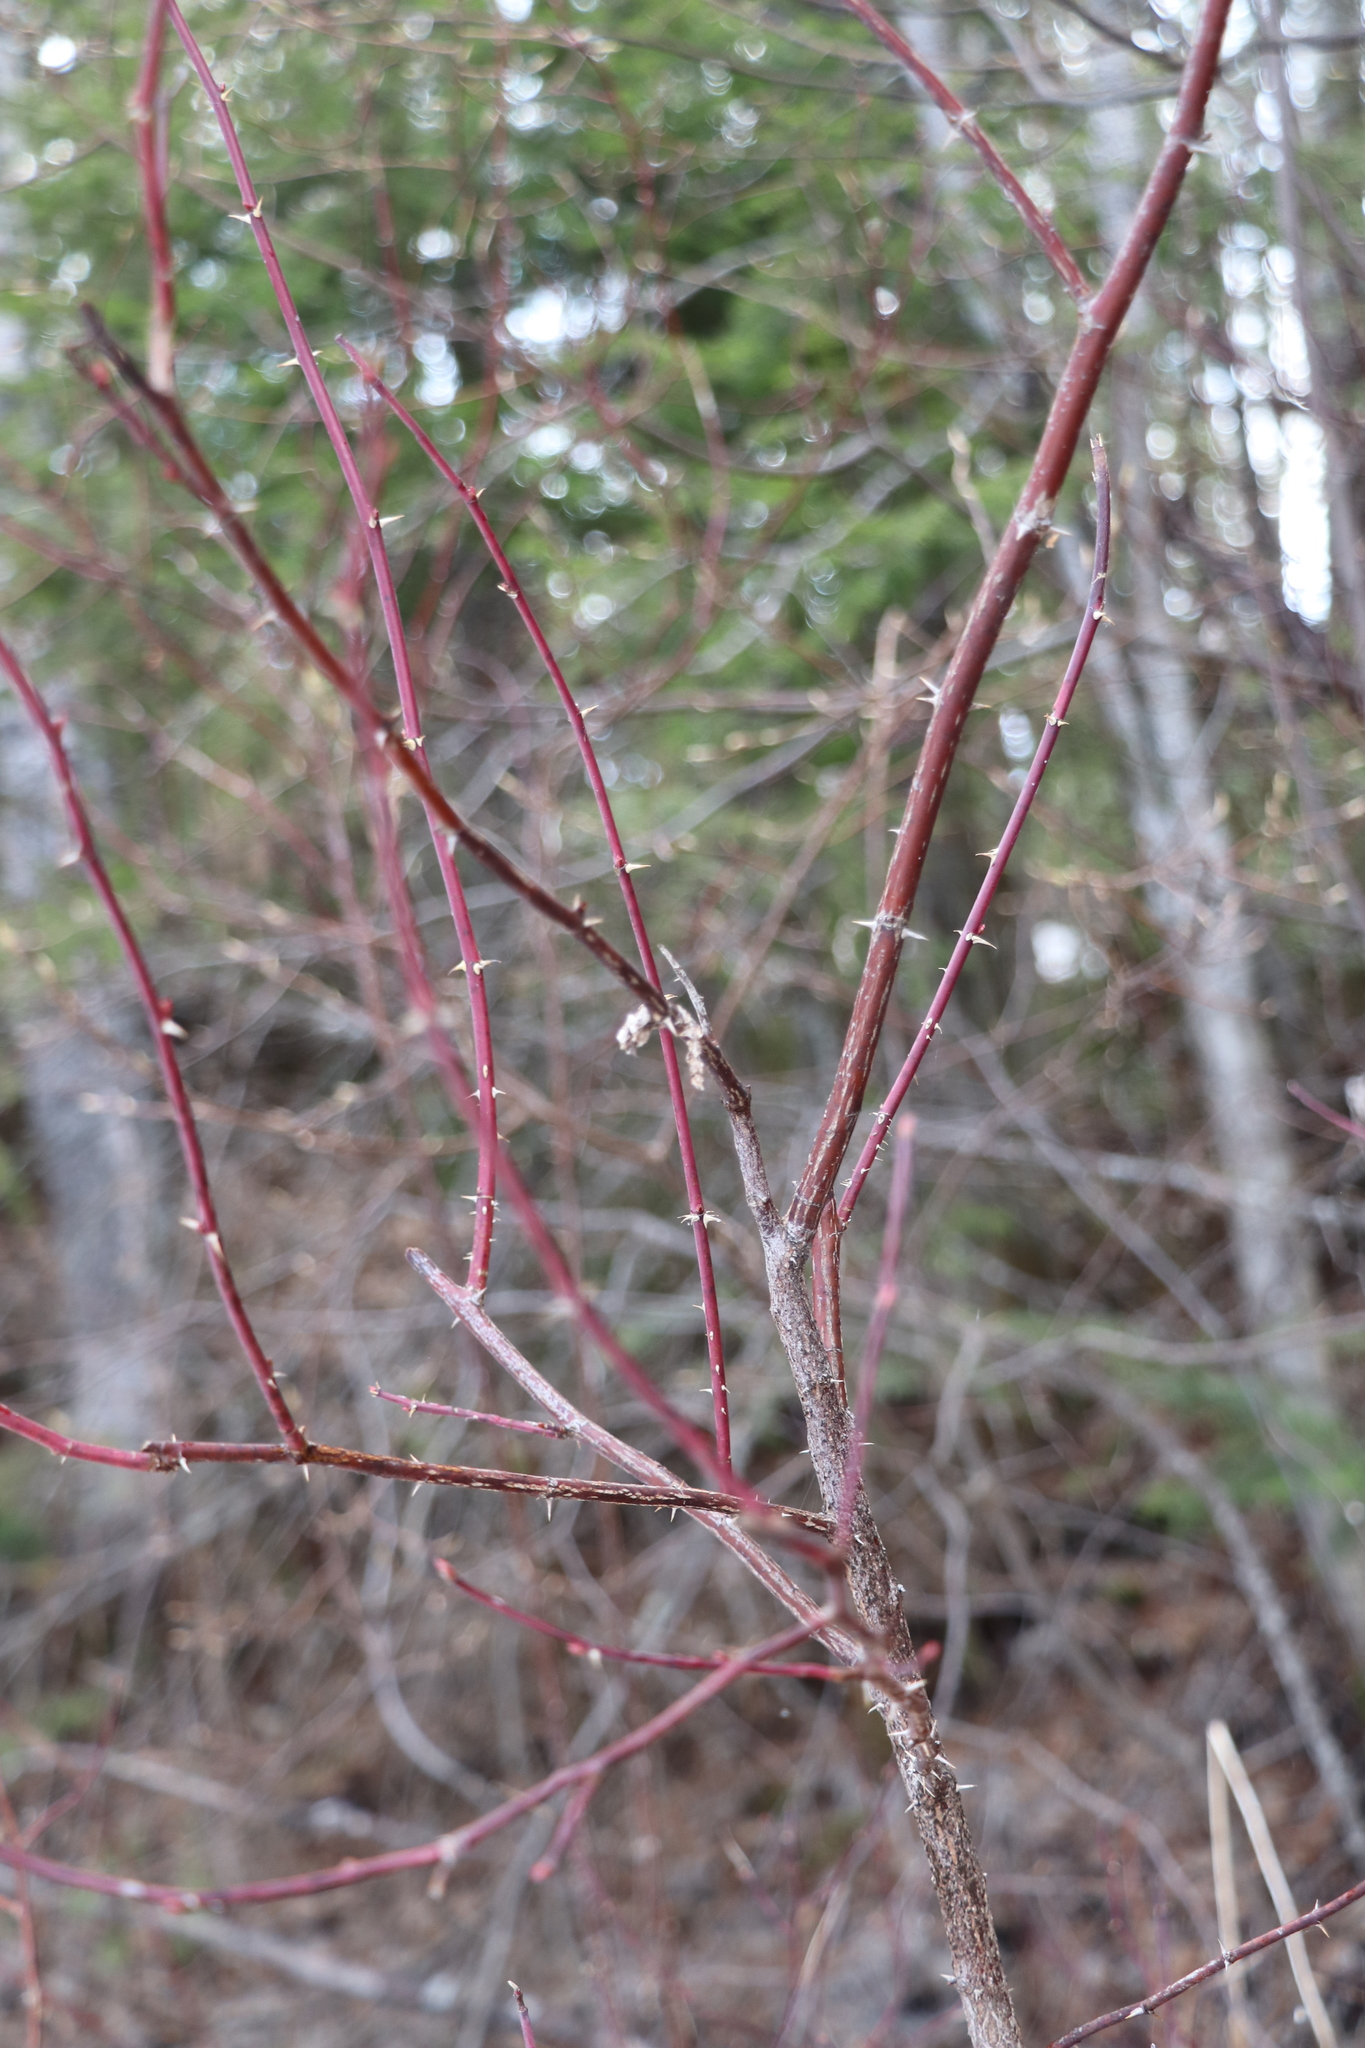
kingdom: Plantae
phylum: Tracheophyta
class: Magnoliopsida
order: Rosales
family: Rosaceae
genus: Rosa
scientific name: Rosa majalis
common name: Cinnamon rose
